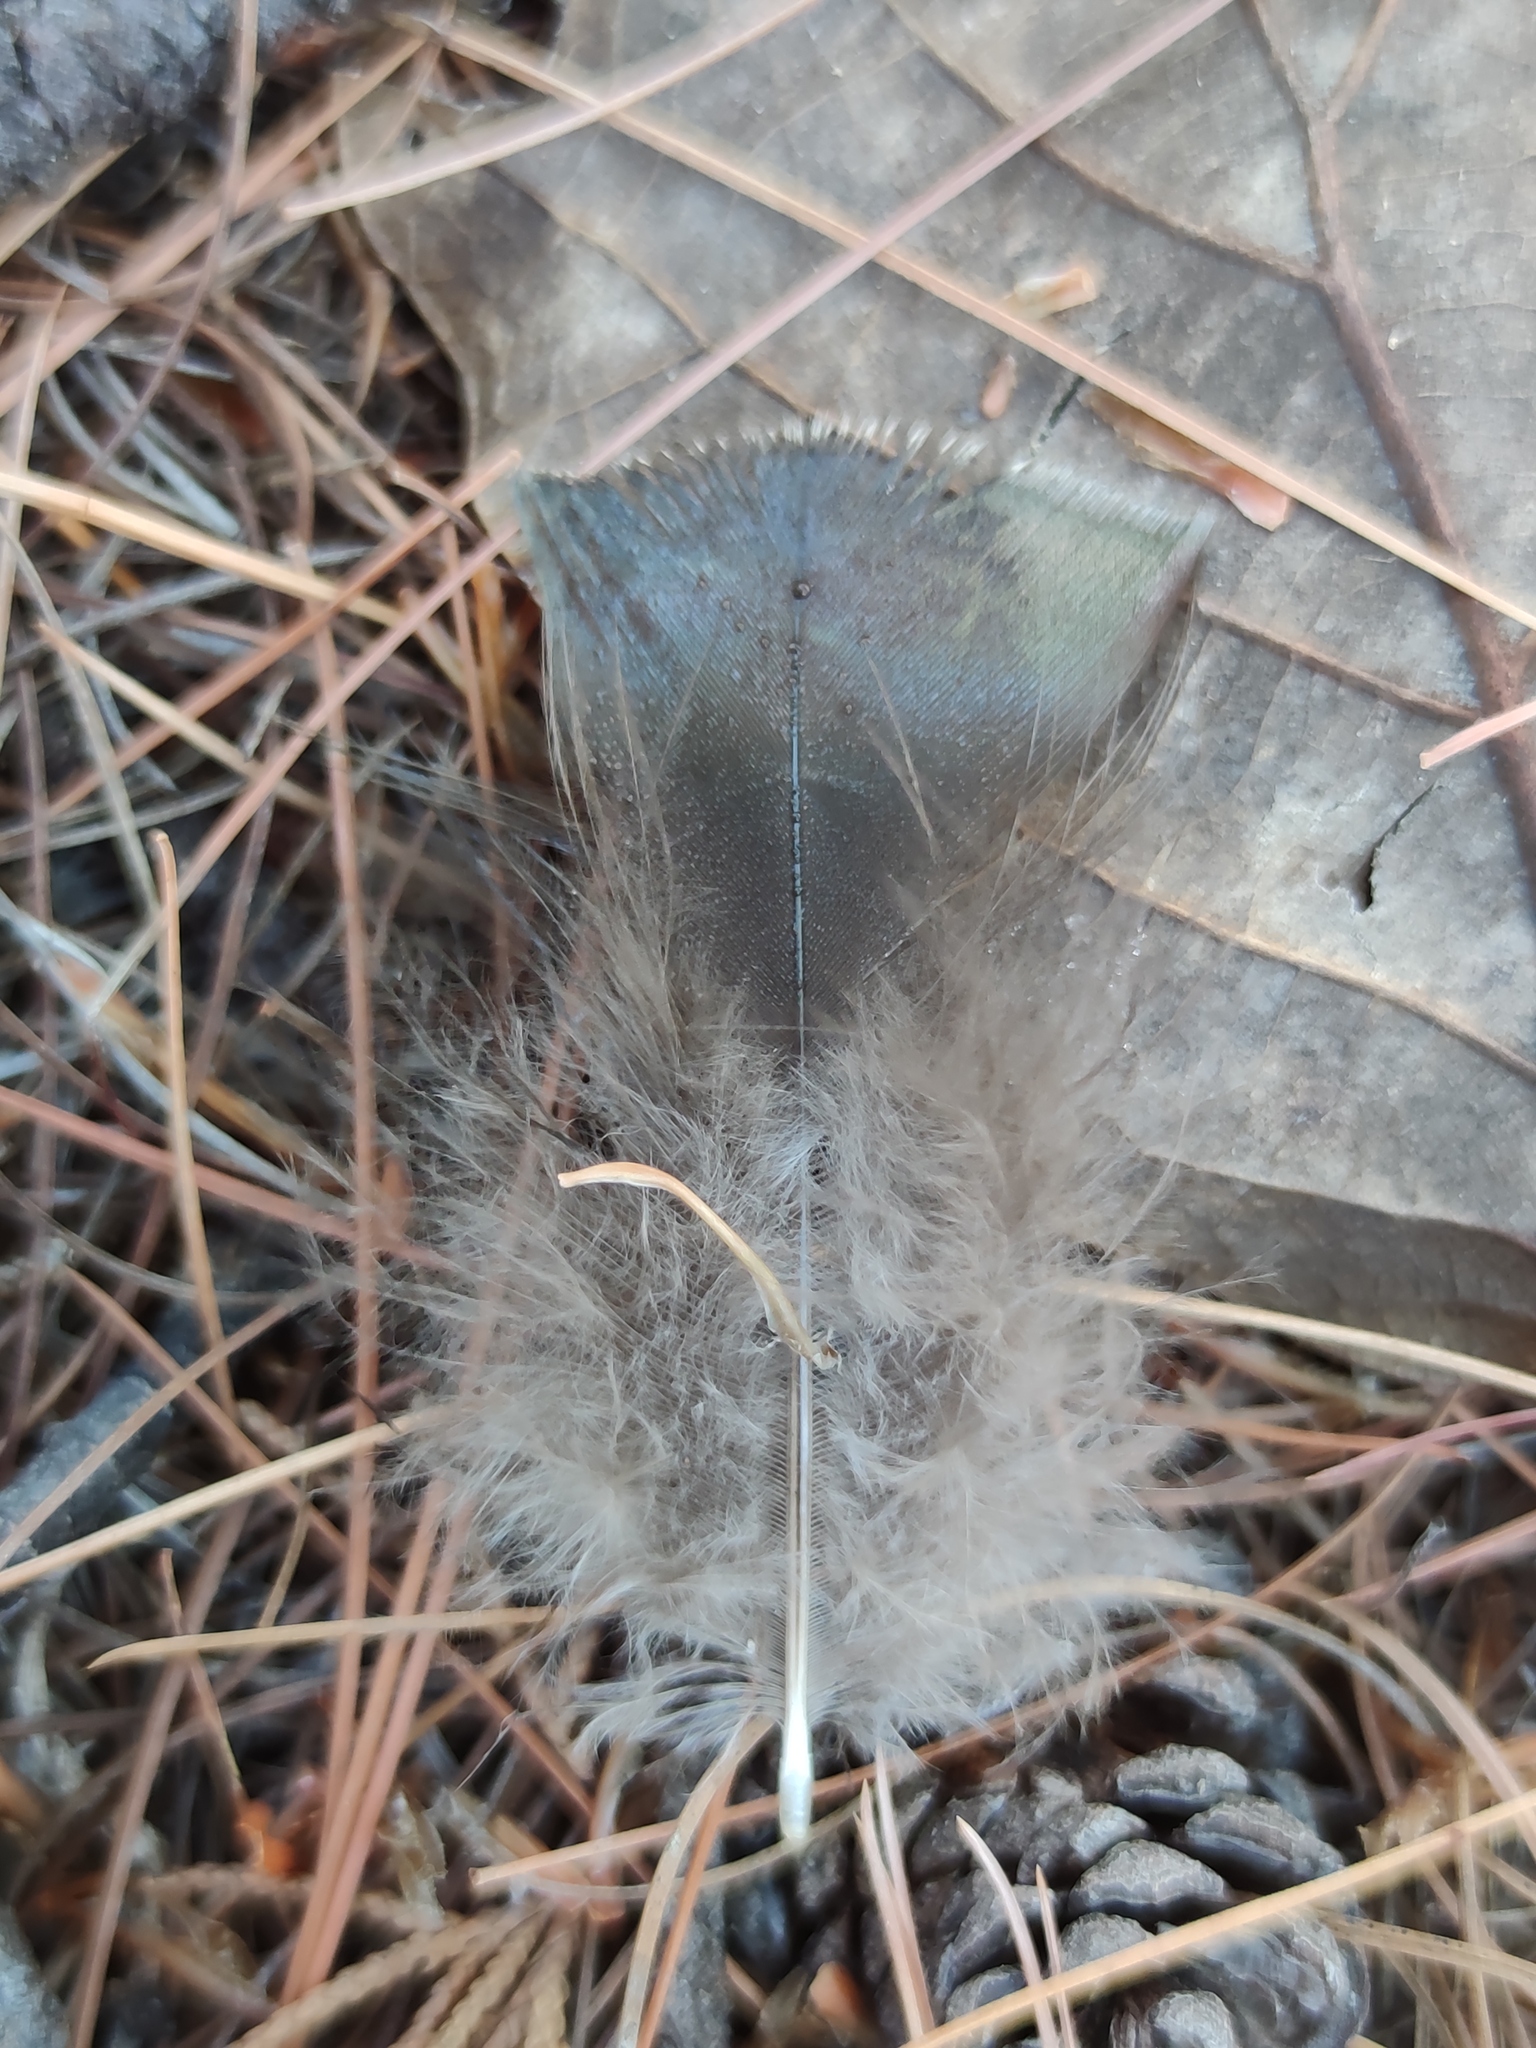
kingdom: Animalia
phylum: Chordata
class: Aves
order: Galliformes
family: Phasianidae
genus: Meleagris
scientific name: Meleagris gallopavo
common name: Wild turkey
